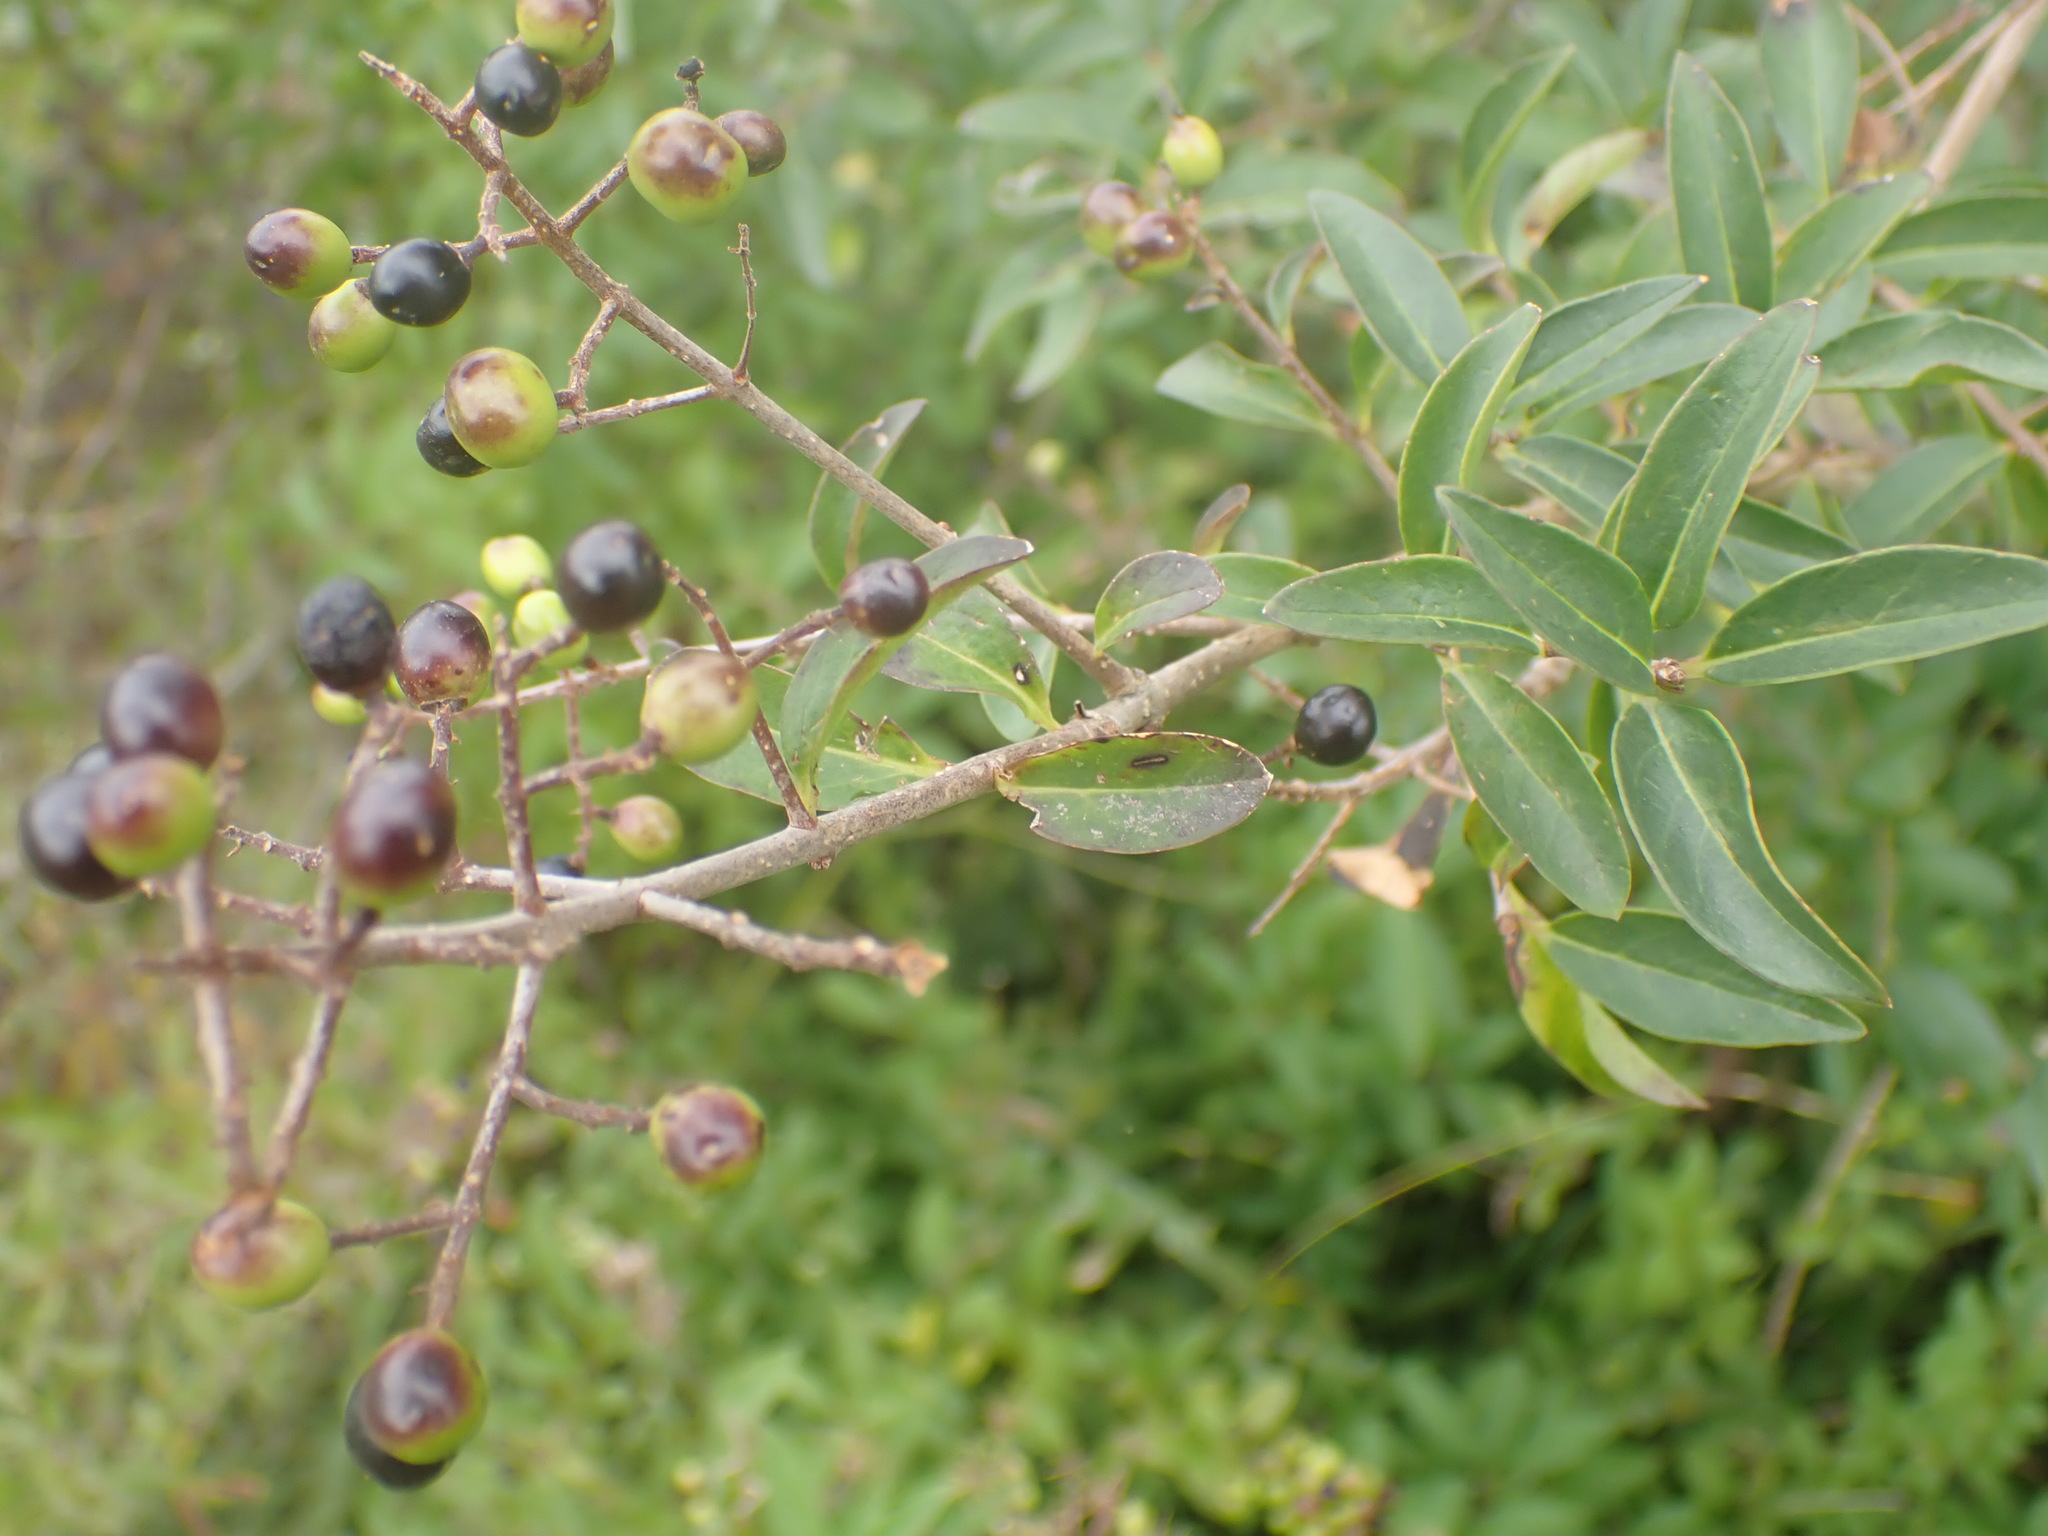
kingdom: Plantae
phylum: Tracheophyta
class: Magnoliopsida
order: Lamiales
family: Oleaceae
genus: Ligustrum
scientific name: Ligustrum vulgare
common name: Wild privet
